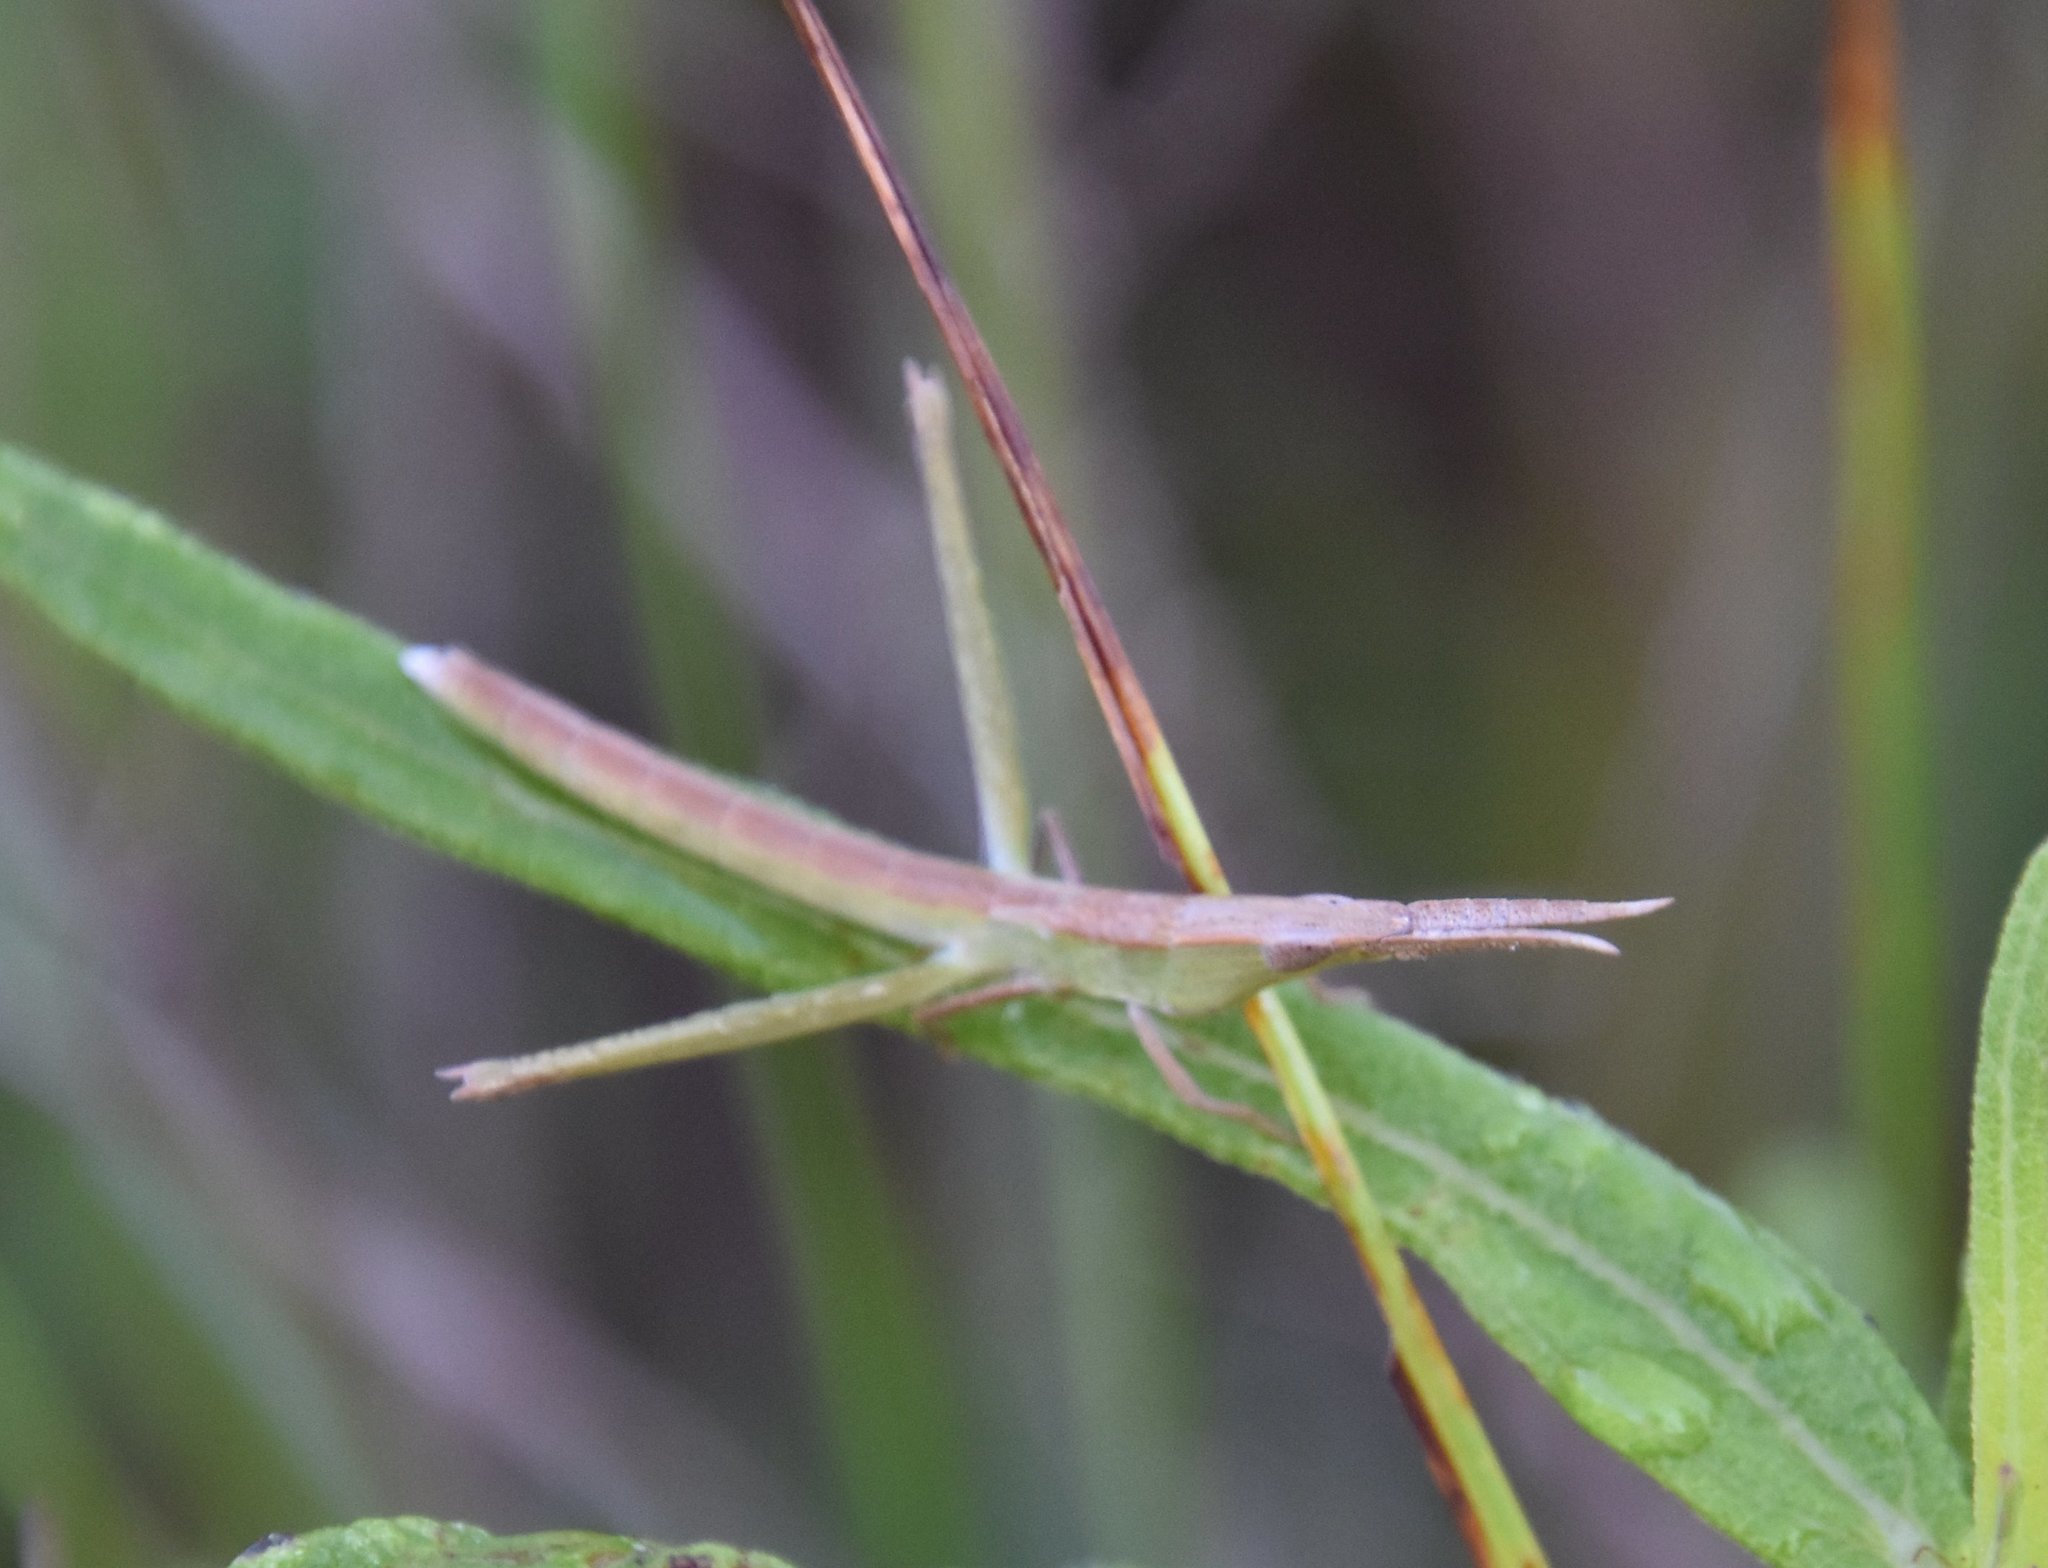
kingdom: Animalia
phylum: Arthropoda
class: Insecta
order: Orthoptera
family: Acrididae
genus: Achurum
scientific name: Achurum carinatum
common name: Long-headed toothpick grasshopper
